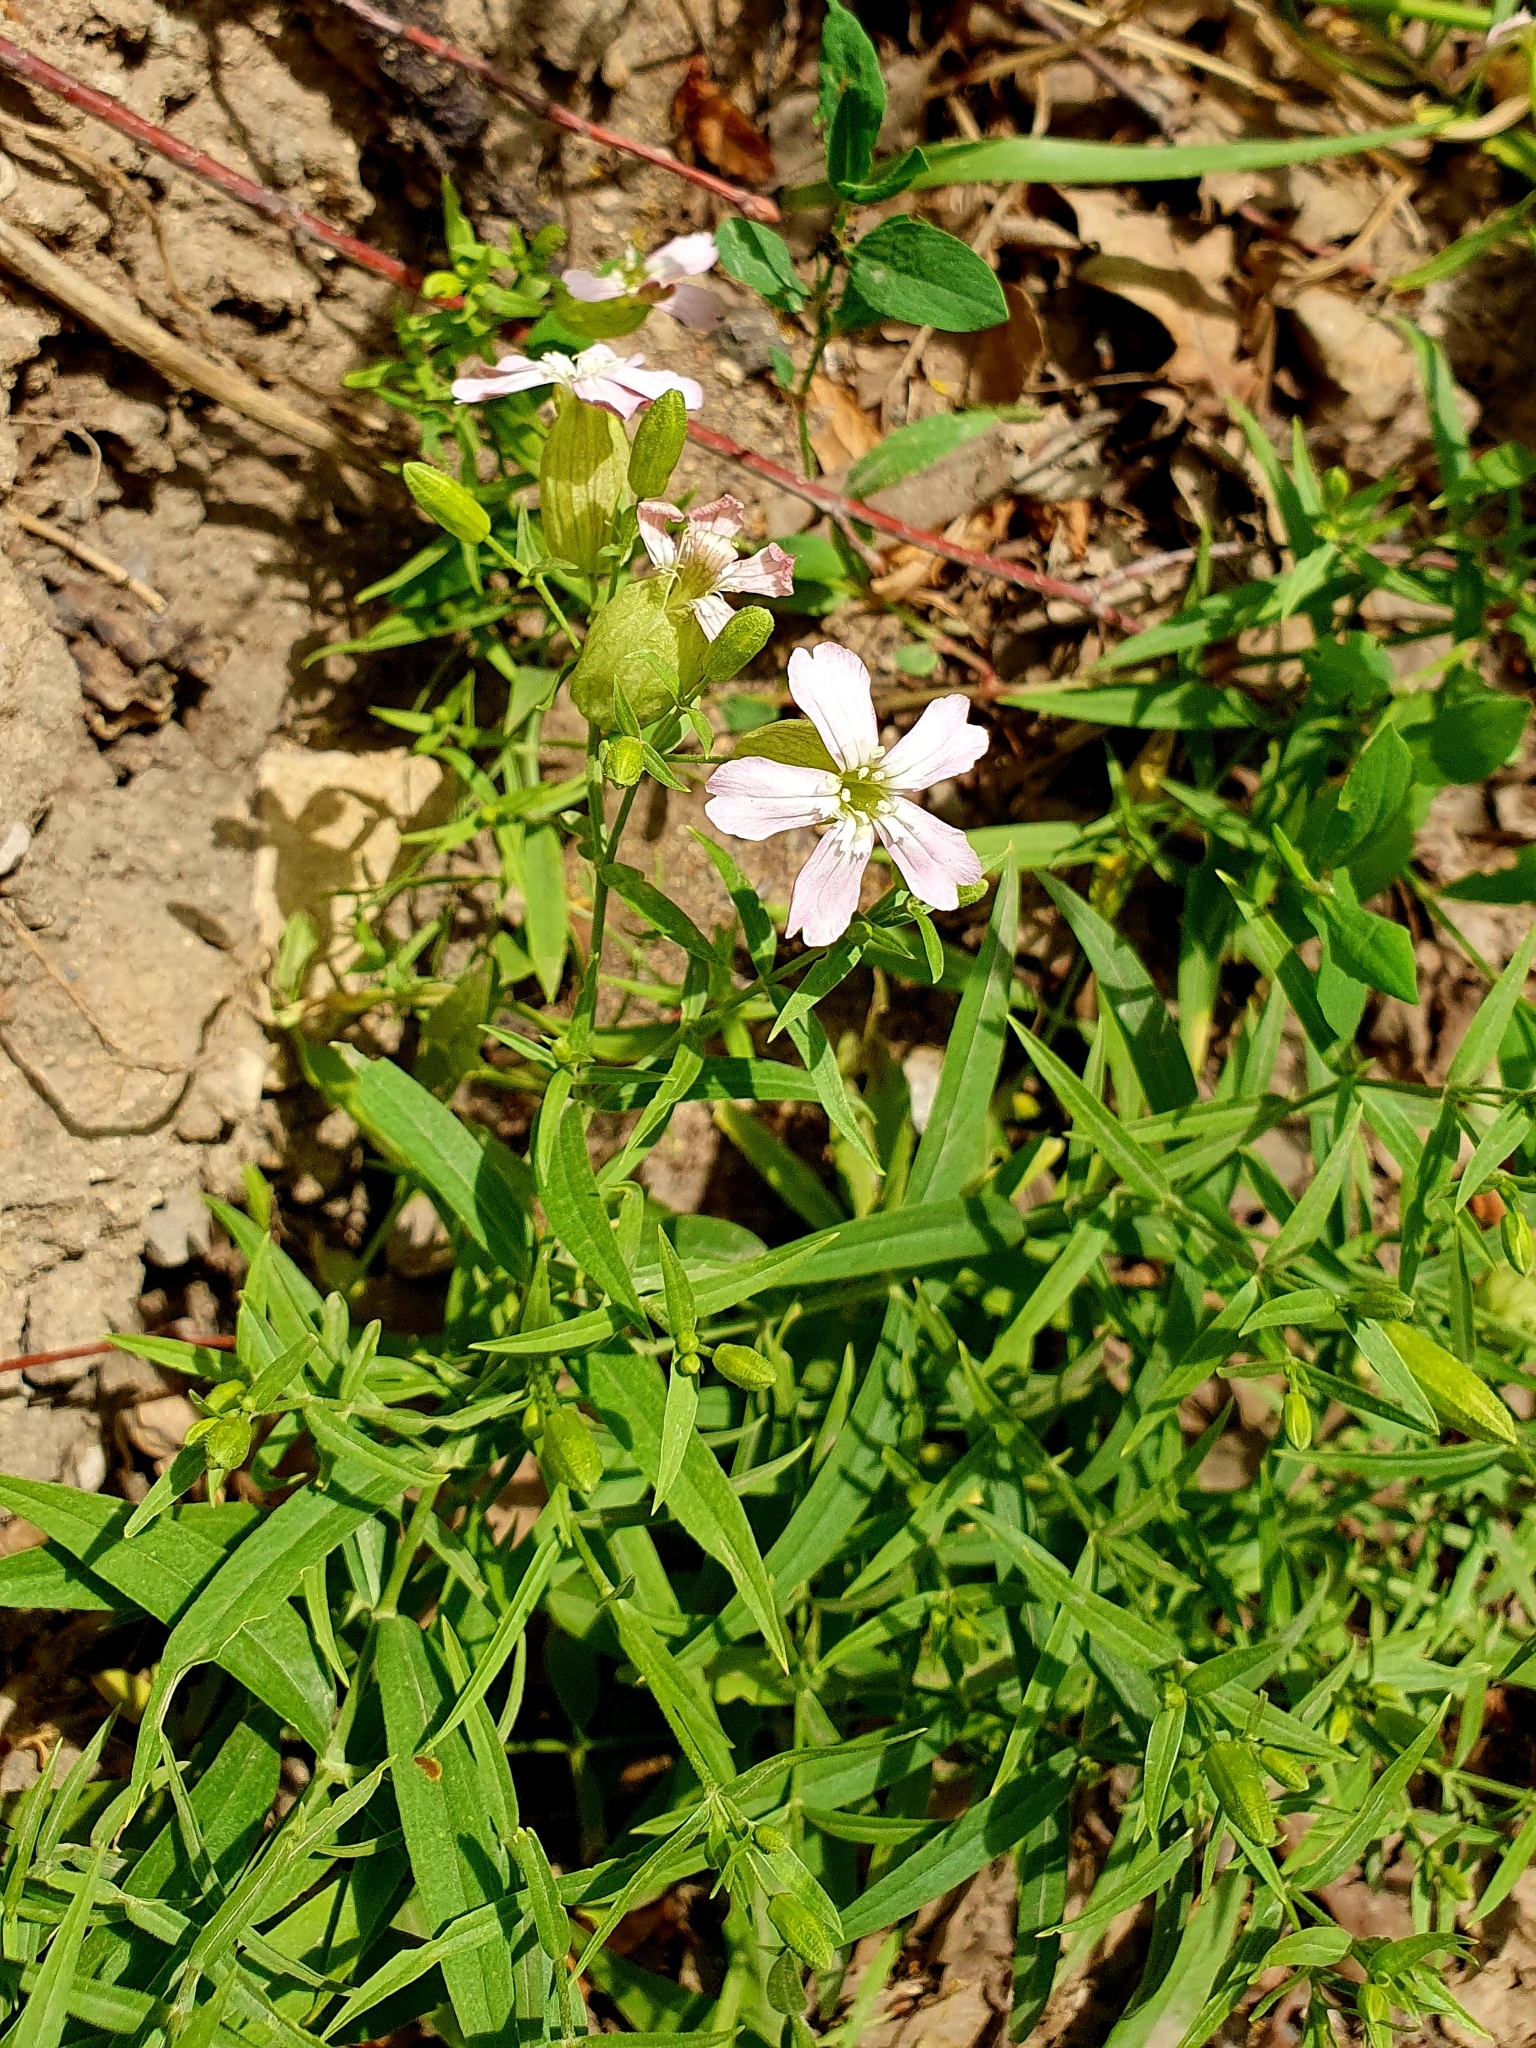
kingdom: Plantae
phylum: Tracheophyta
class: Magnoliopsida
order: Caryophyllales
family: Caryophyllaceae
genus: Silene
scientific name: Silene procumbens
